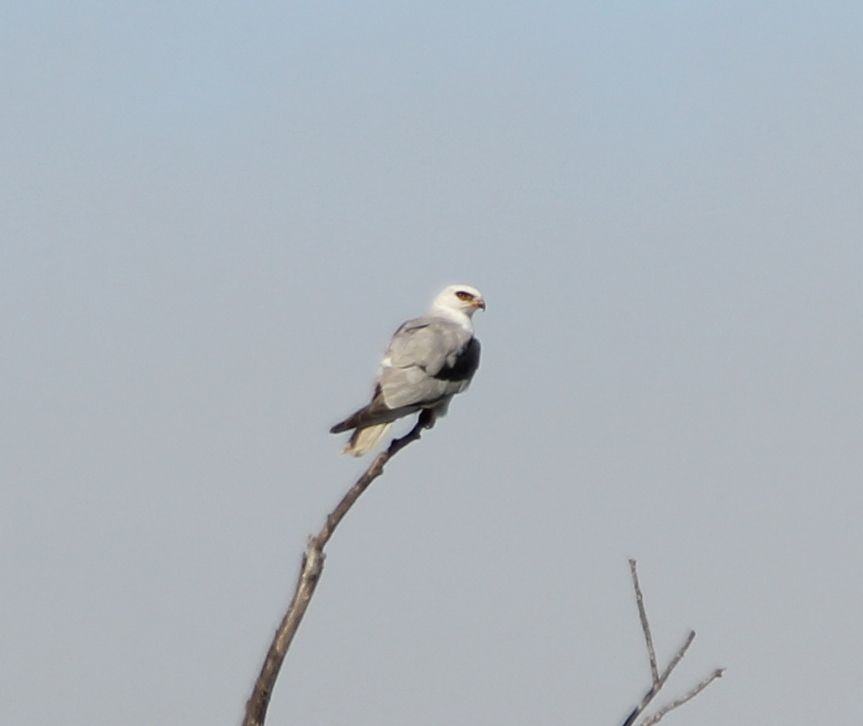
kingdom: Animalia
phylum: Chordata
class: Aves
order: Accipitriformes
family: Accipitridae
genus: Elanus
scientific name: Elanus leucurus
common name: White-tailed kite
